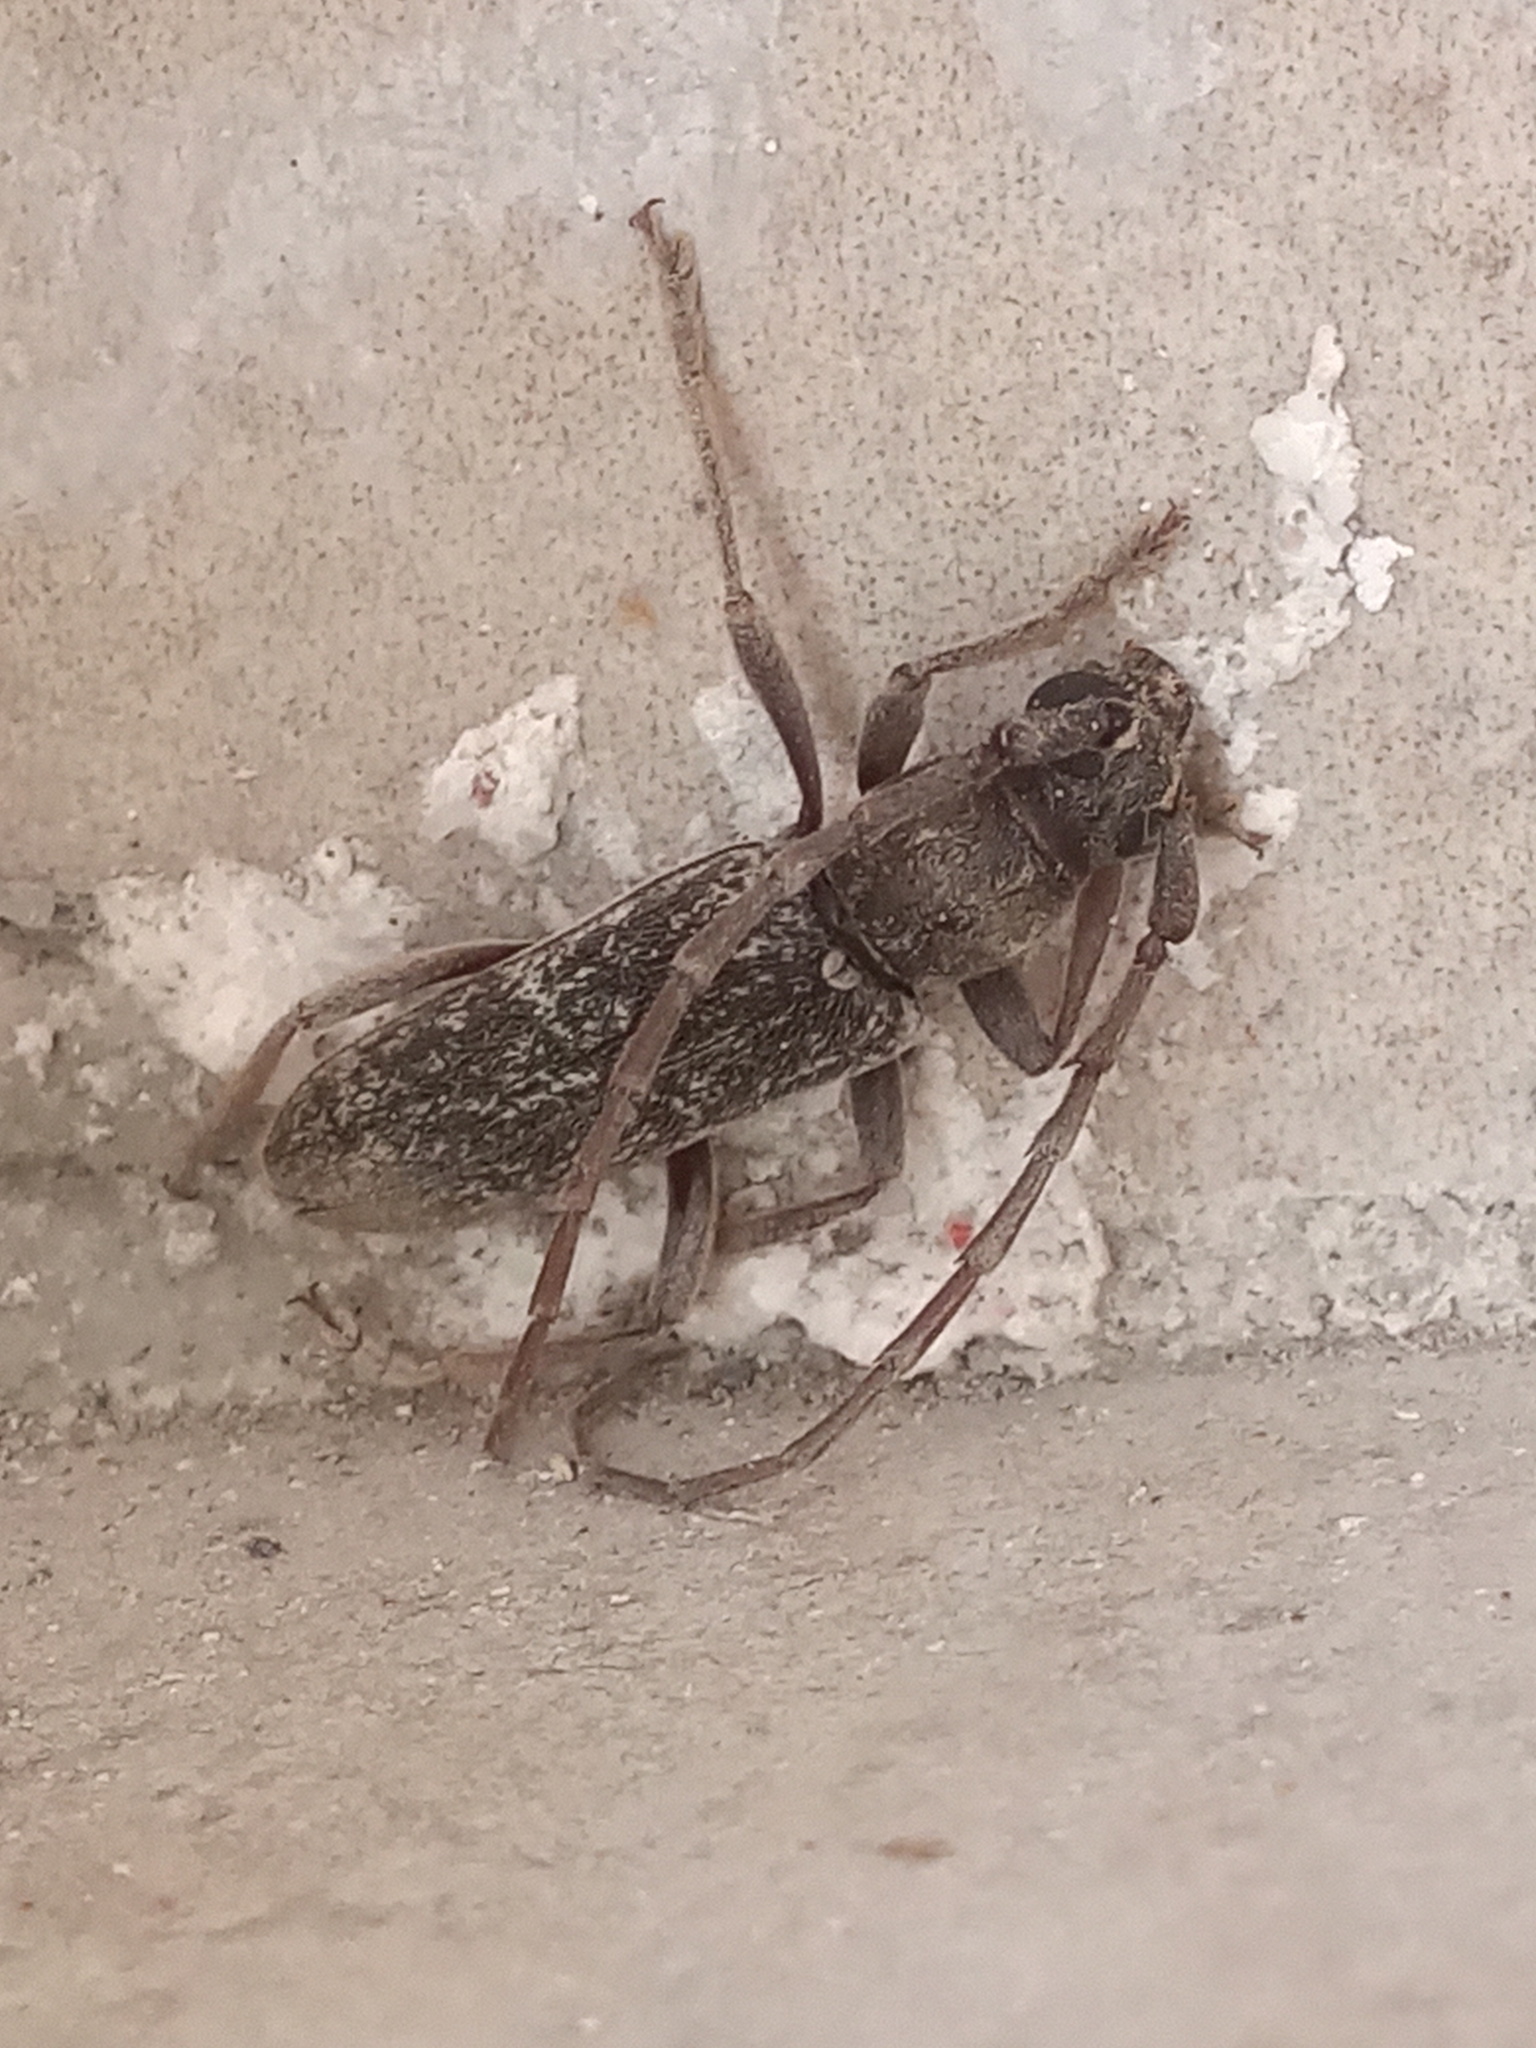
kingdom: Animalia
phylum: Arthropoda
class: Insecta
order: Coleoptera
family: Cerambycidae
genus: Anelaphus
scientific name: Anelaphus inermis
